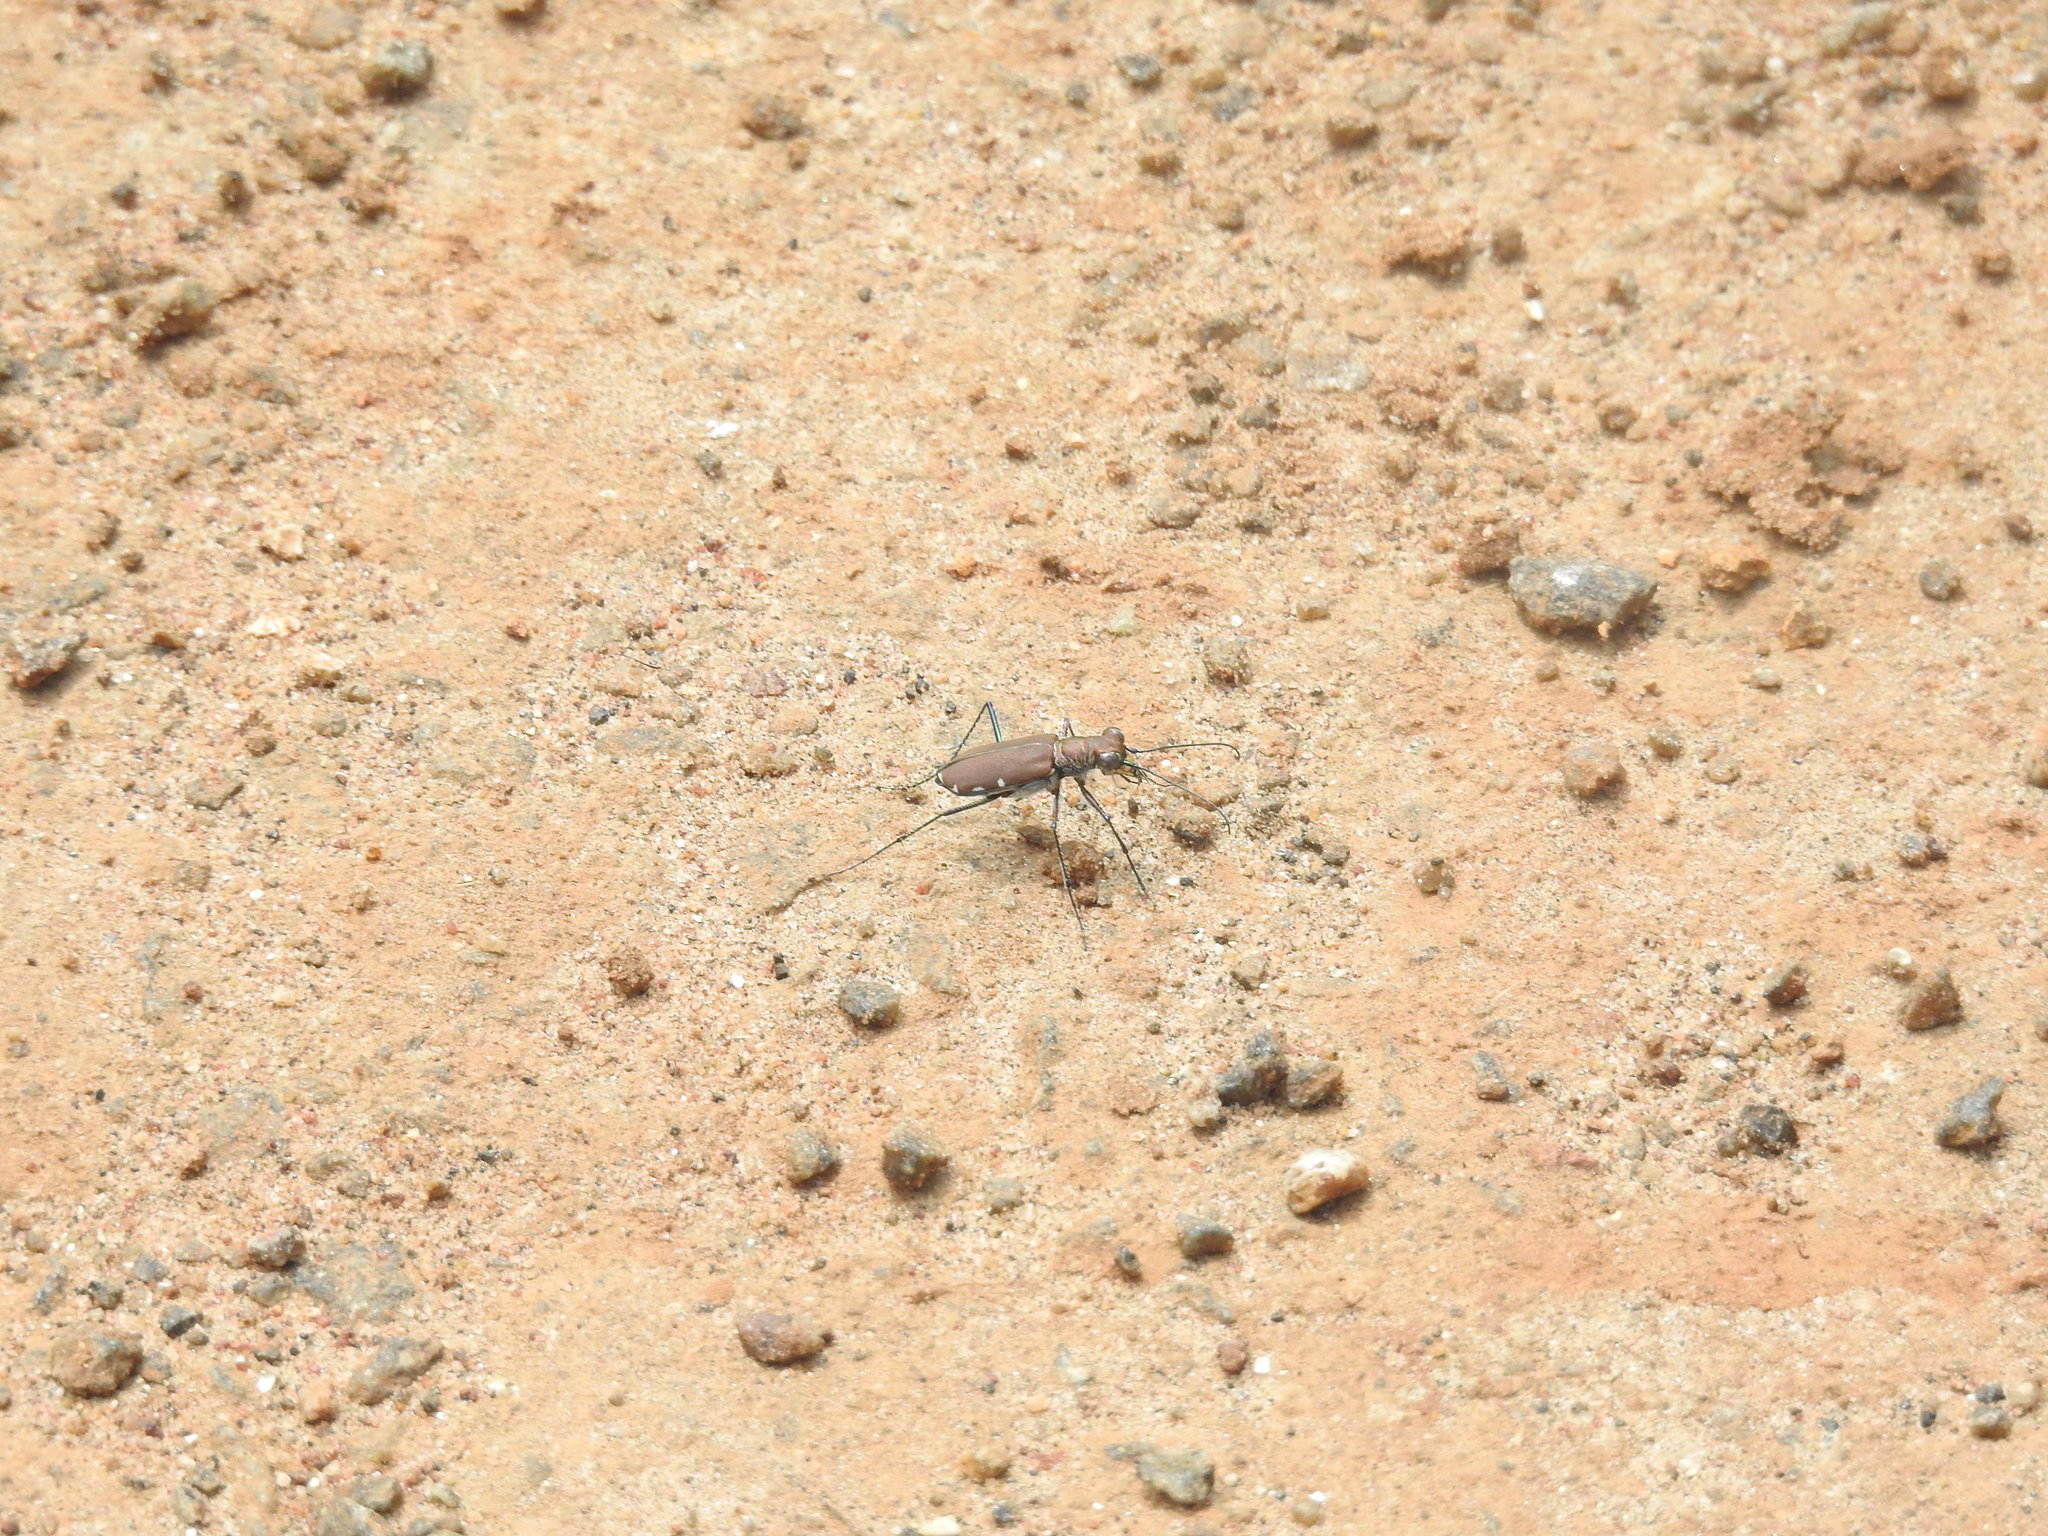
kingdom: Animalia
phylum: Arthropoda
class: Insecta
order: Coleoptera
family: Carabidae
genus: Cicindela
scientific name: Cicindela funerea
